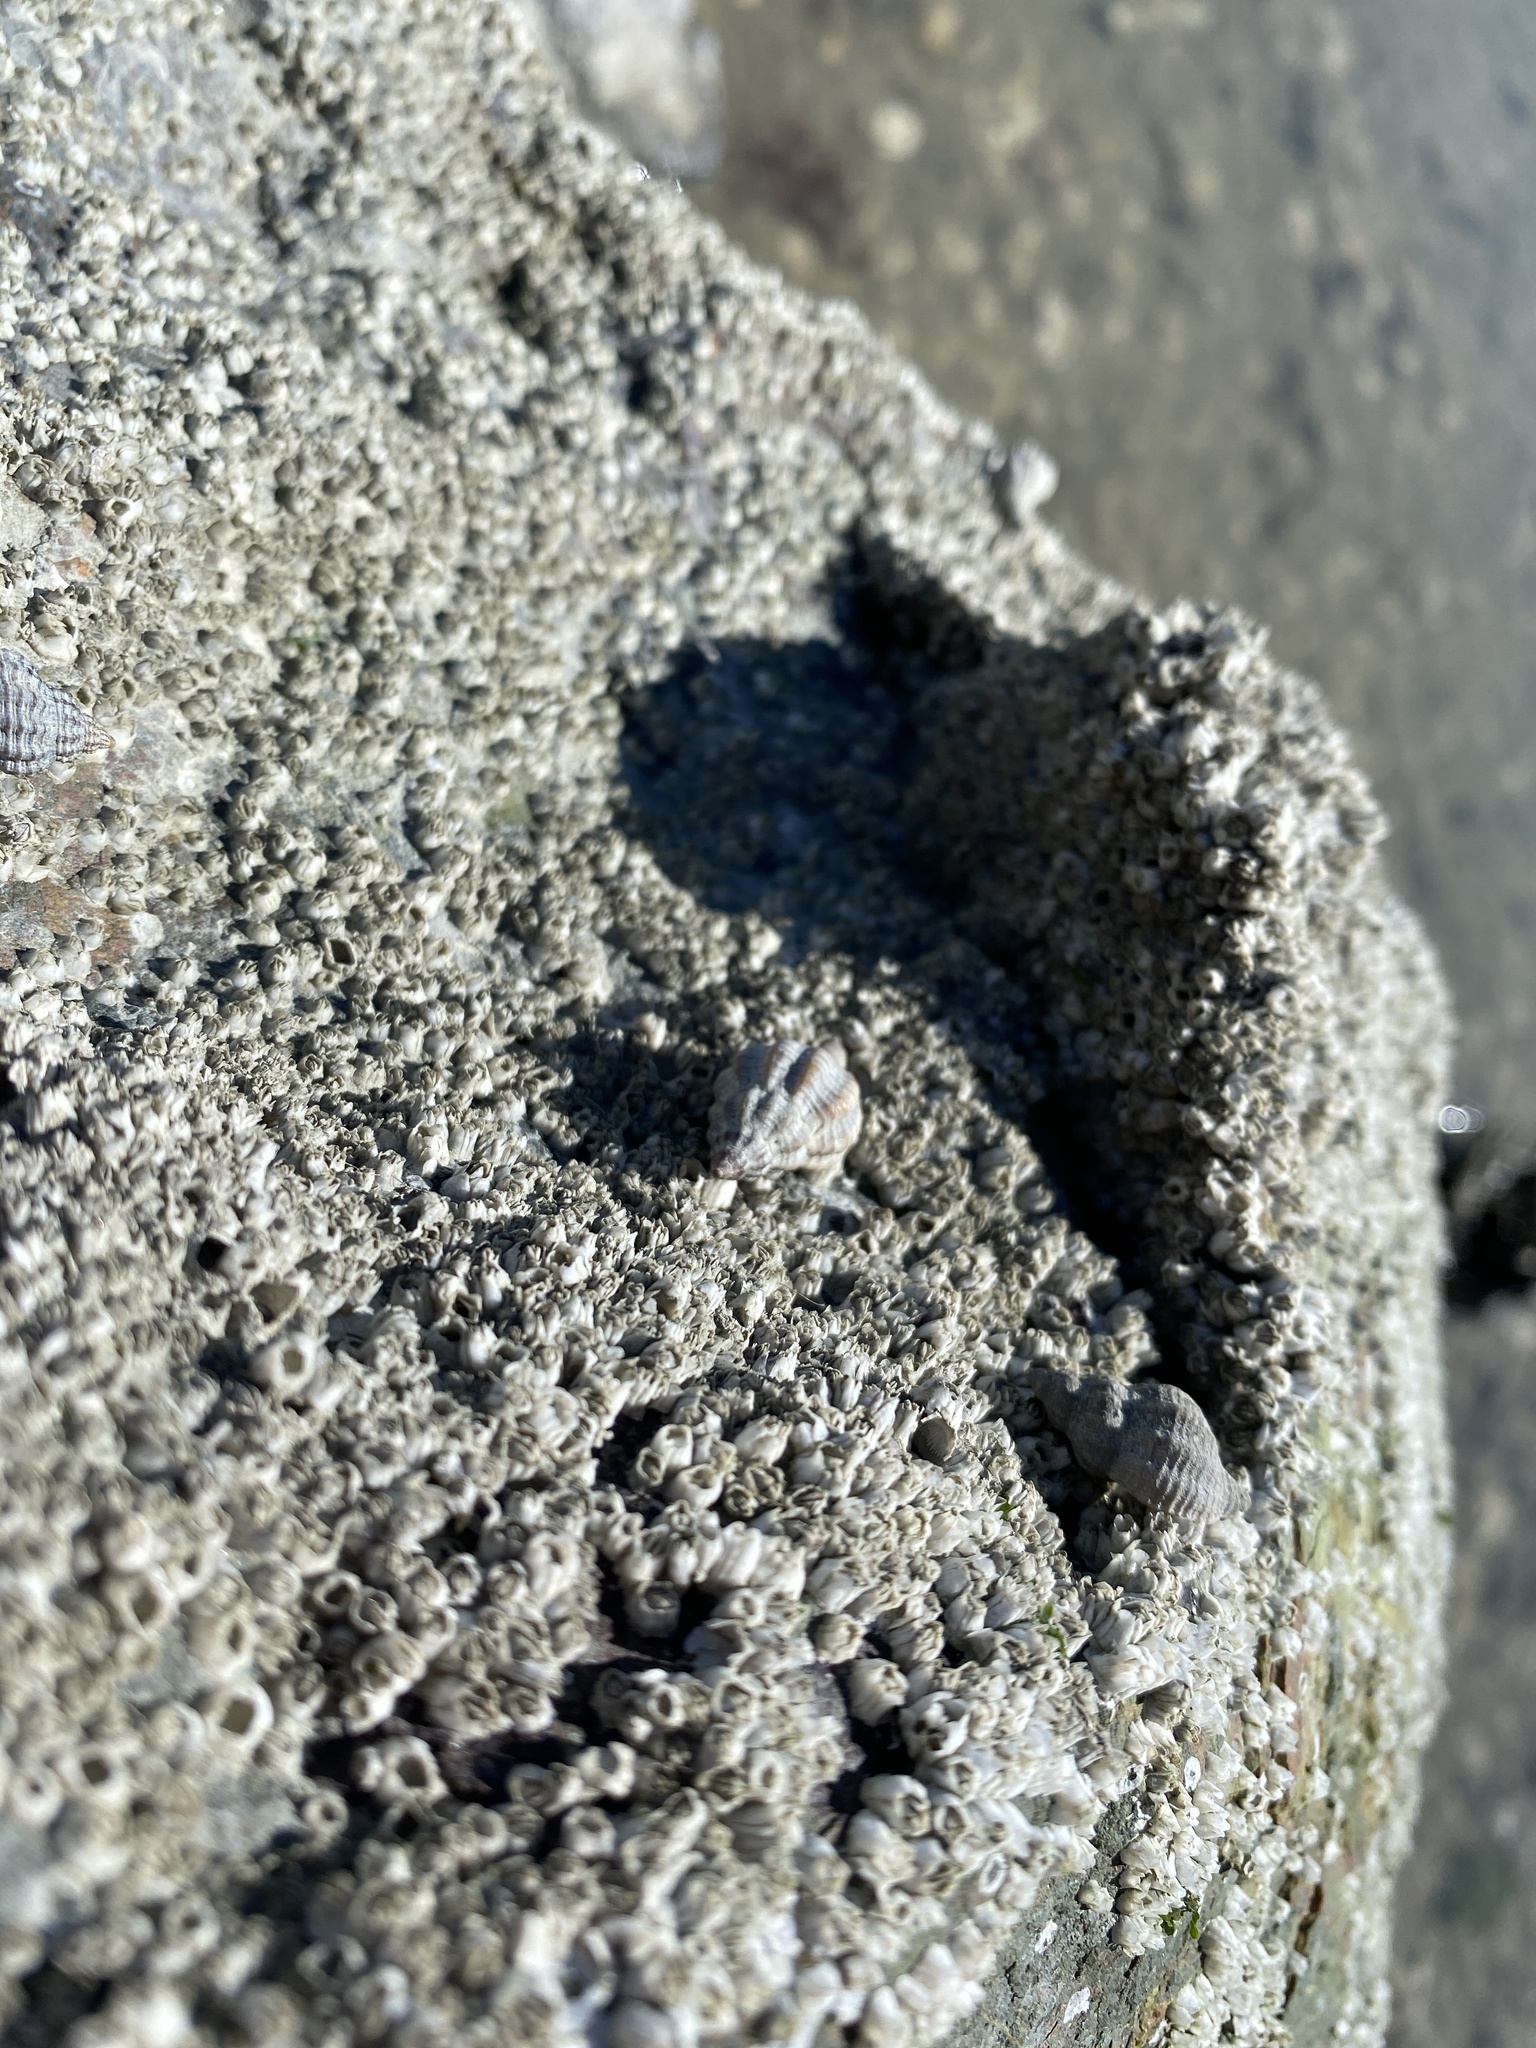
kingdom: Animalia
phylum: Mollusca
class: Gastropoda
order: Neogastropoda
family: Muricidae
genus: Urosalpinx
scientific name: Urosalpinx cinerea
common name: American sting winkle
